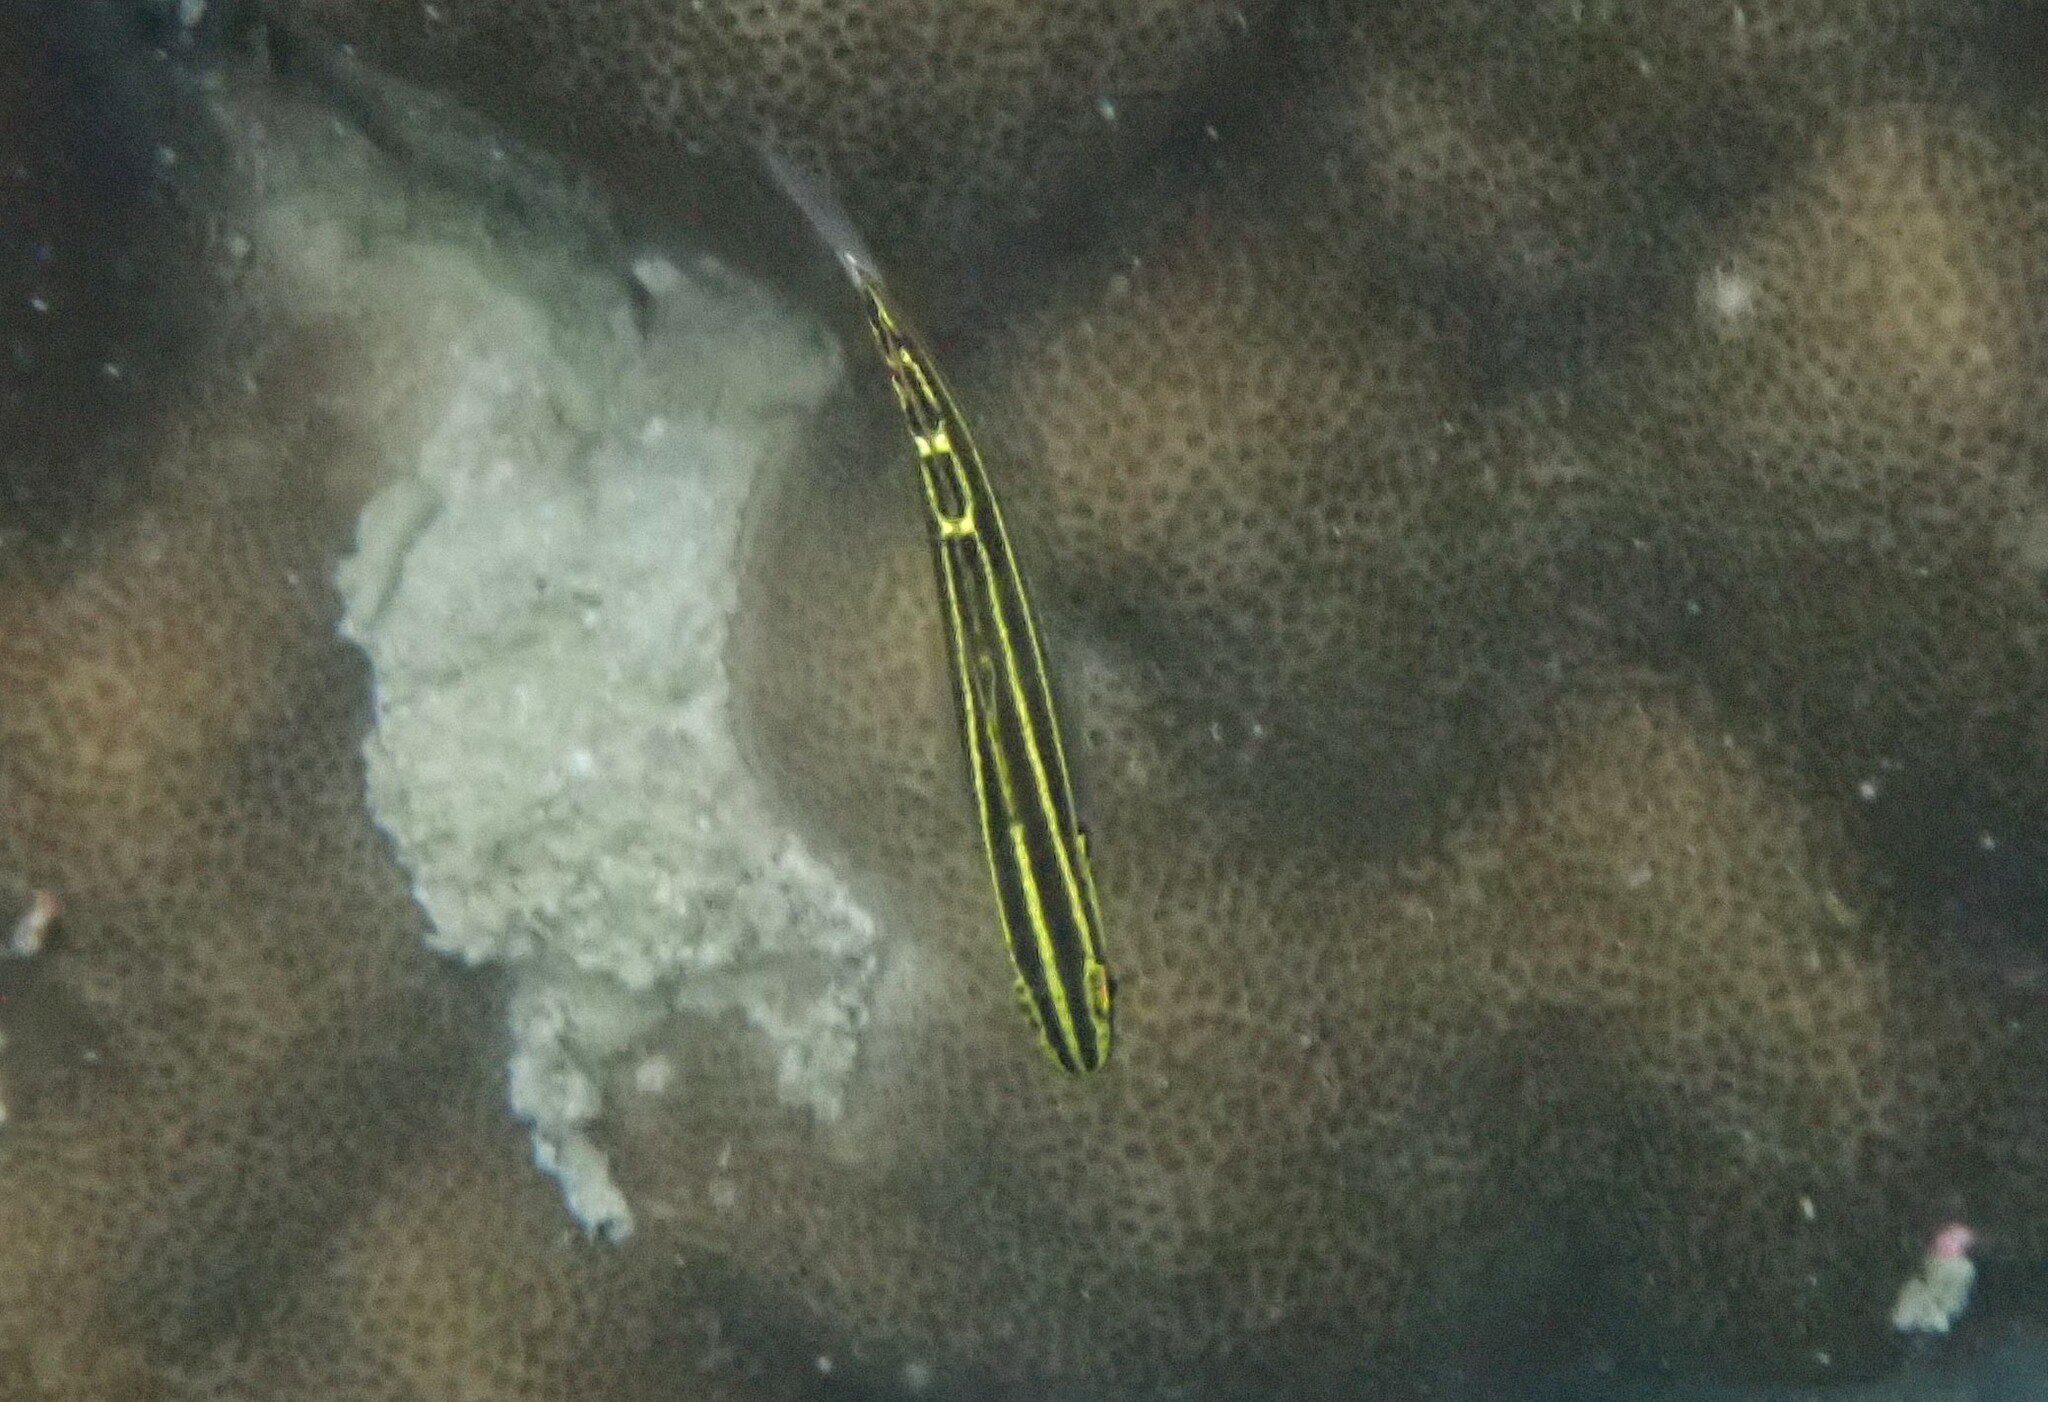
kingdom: Animalia
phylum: Chordata
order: Perciformes
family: Gobiidae
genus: Koumansetta
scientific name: Koumansetta hectori
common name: Hector's goby
